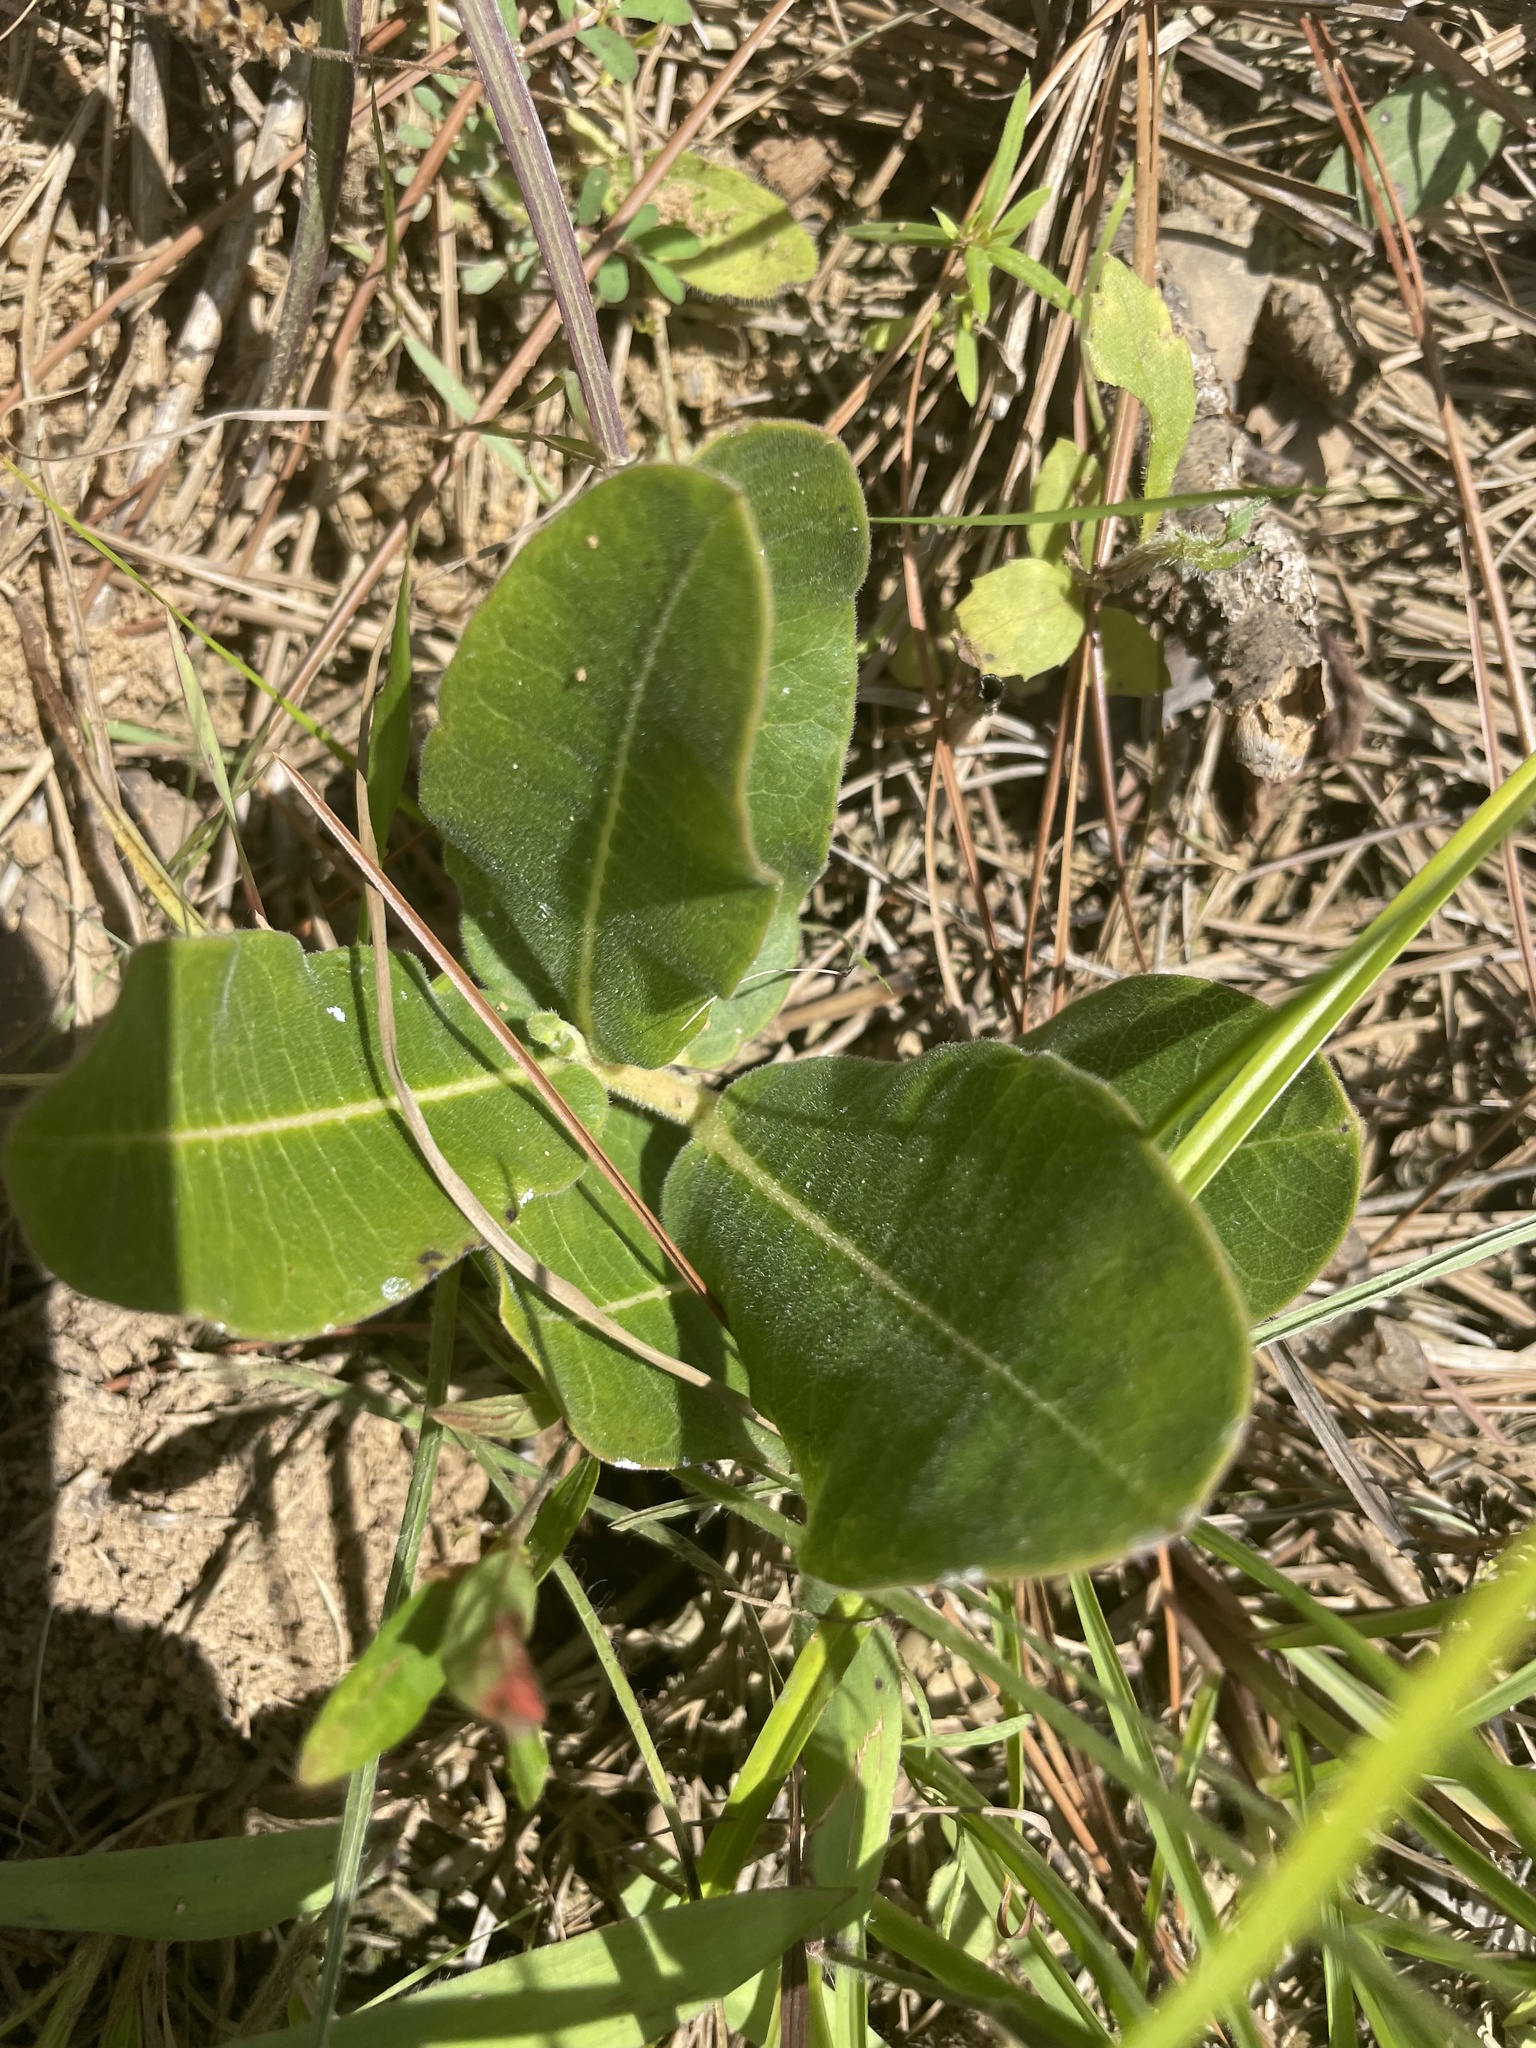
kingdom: Plantae
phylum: Tracheophyta
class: Magnoliopsida
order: Gentianales
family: Apocynaceae
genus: Asclepias
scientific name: Asclepias obovata
